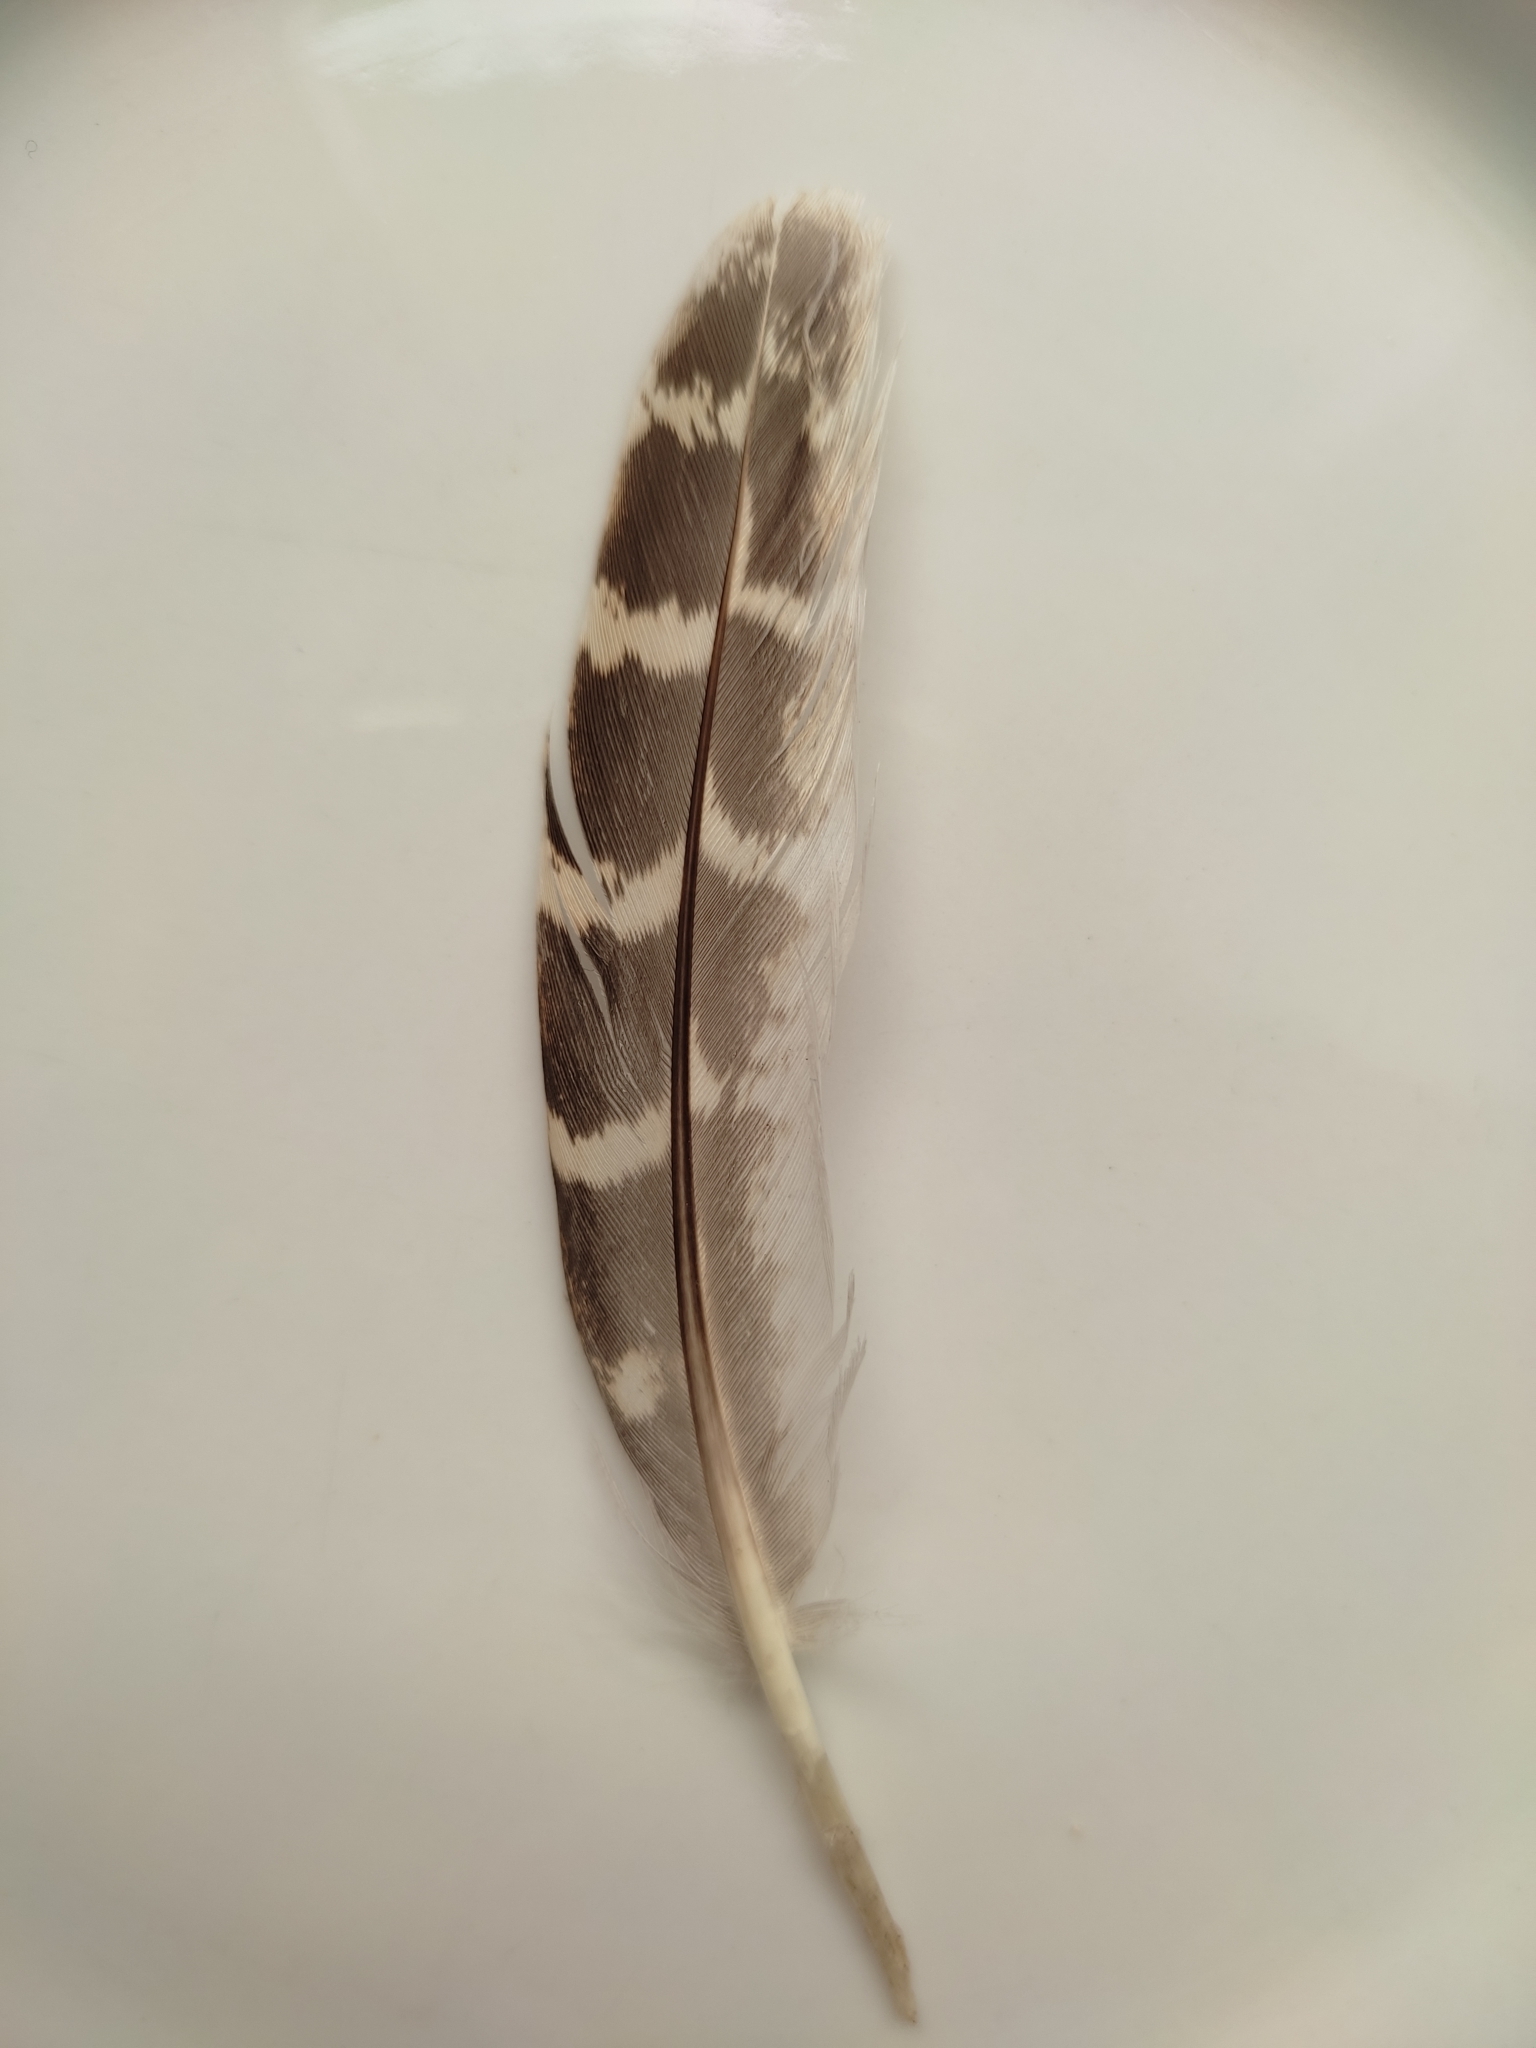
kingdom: Animalia
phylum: Chordata
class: Aves
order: Galliformes
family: Phasianidae
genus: Perdix
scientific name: Perdix perdix
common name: Grey partridge
